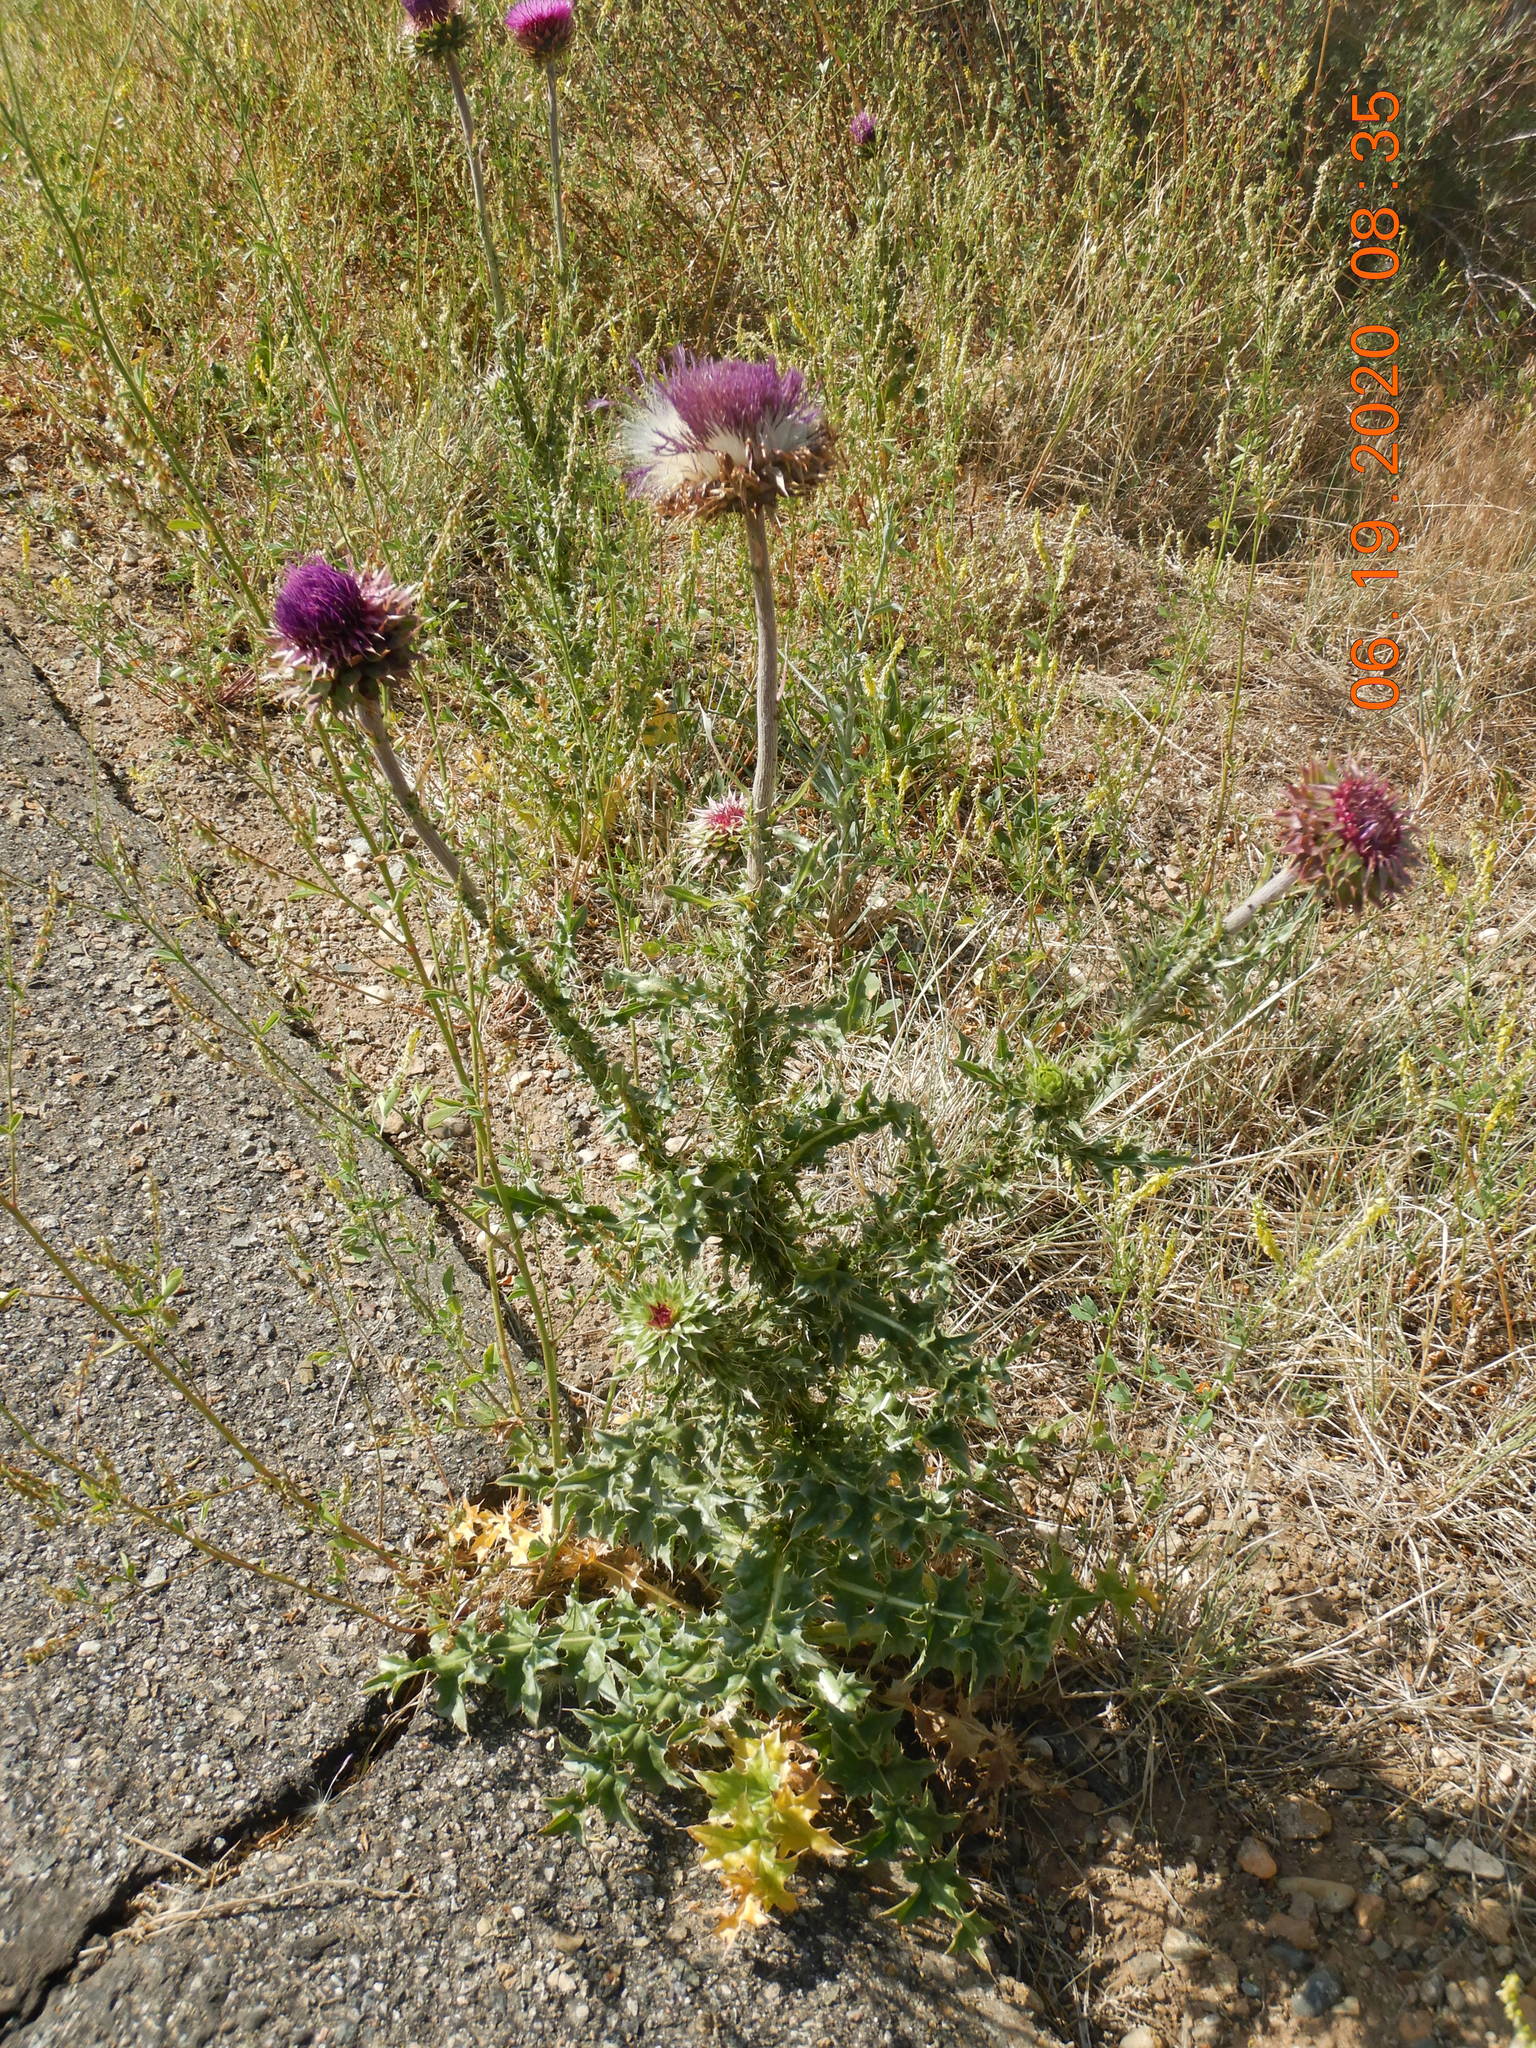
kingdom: Plantae
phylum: Tracheophyta
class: Magnoliopsida
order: Asterales
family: Asteraceae
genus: Carduus
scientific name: Carduus nutans
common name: Musk thistle
